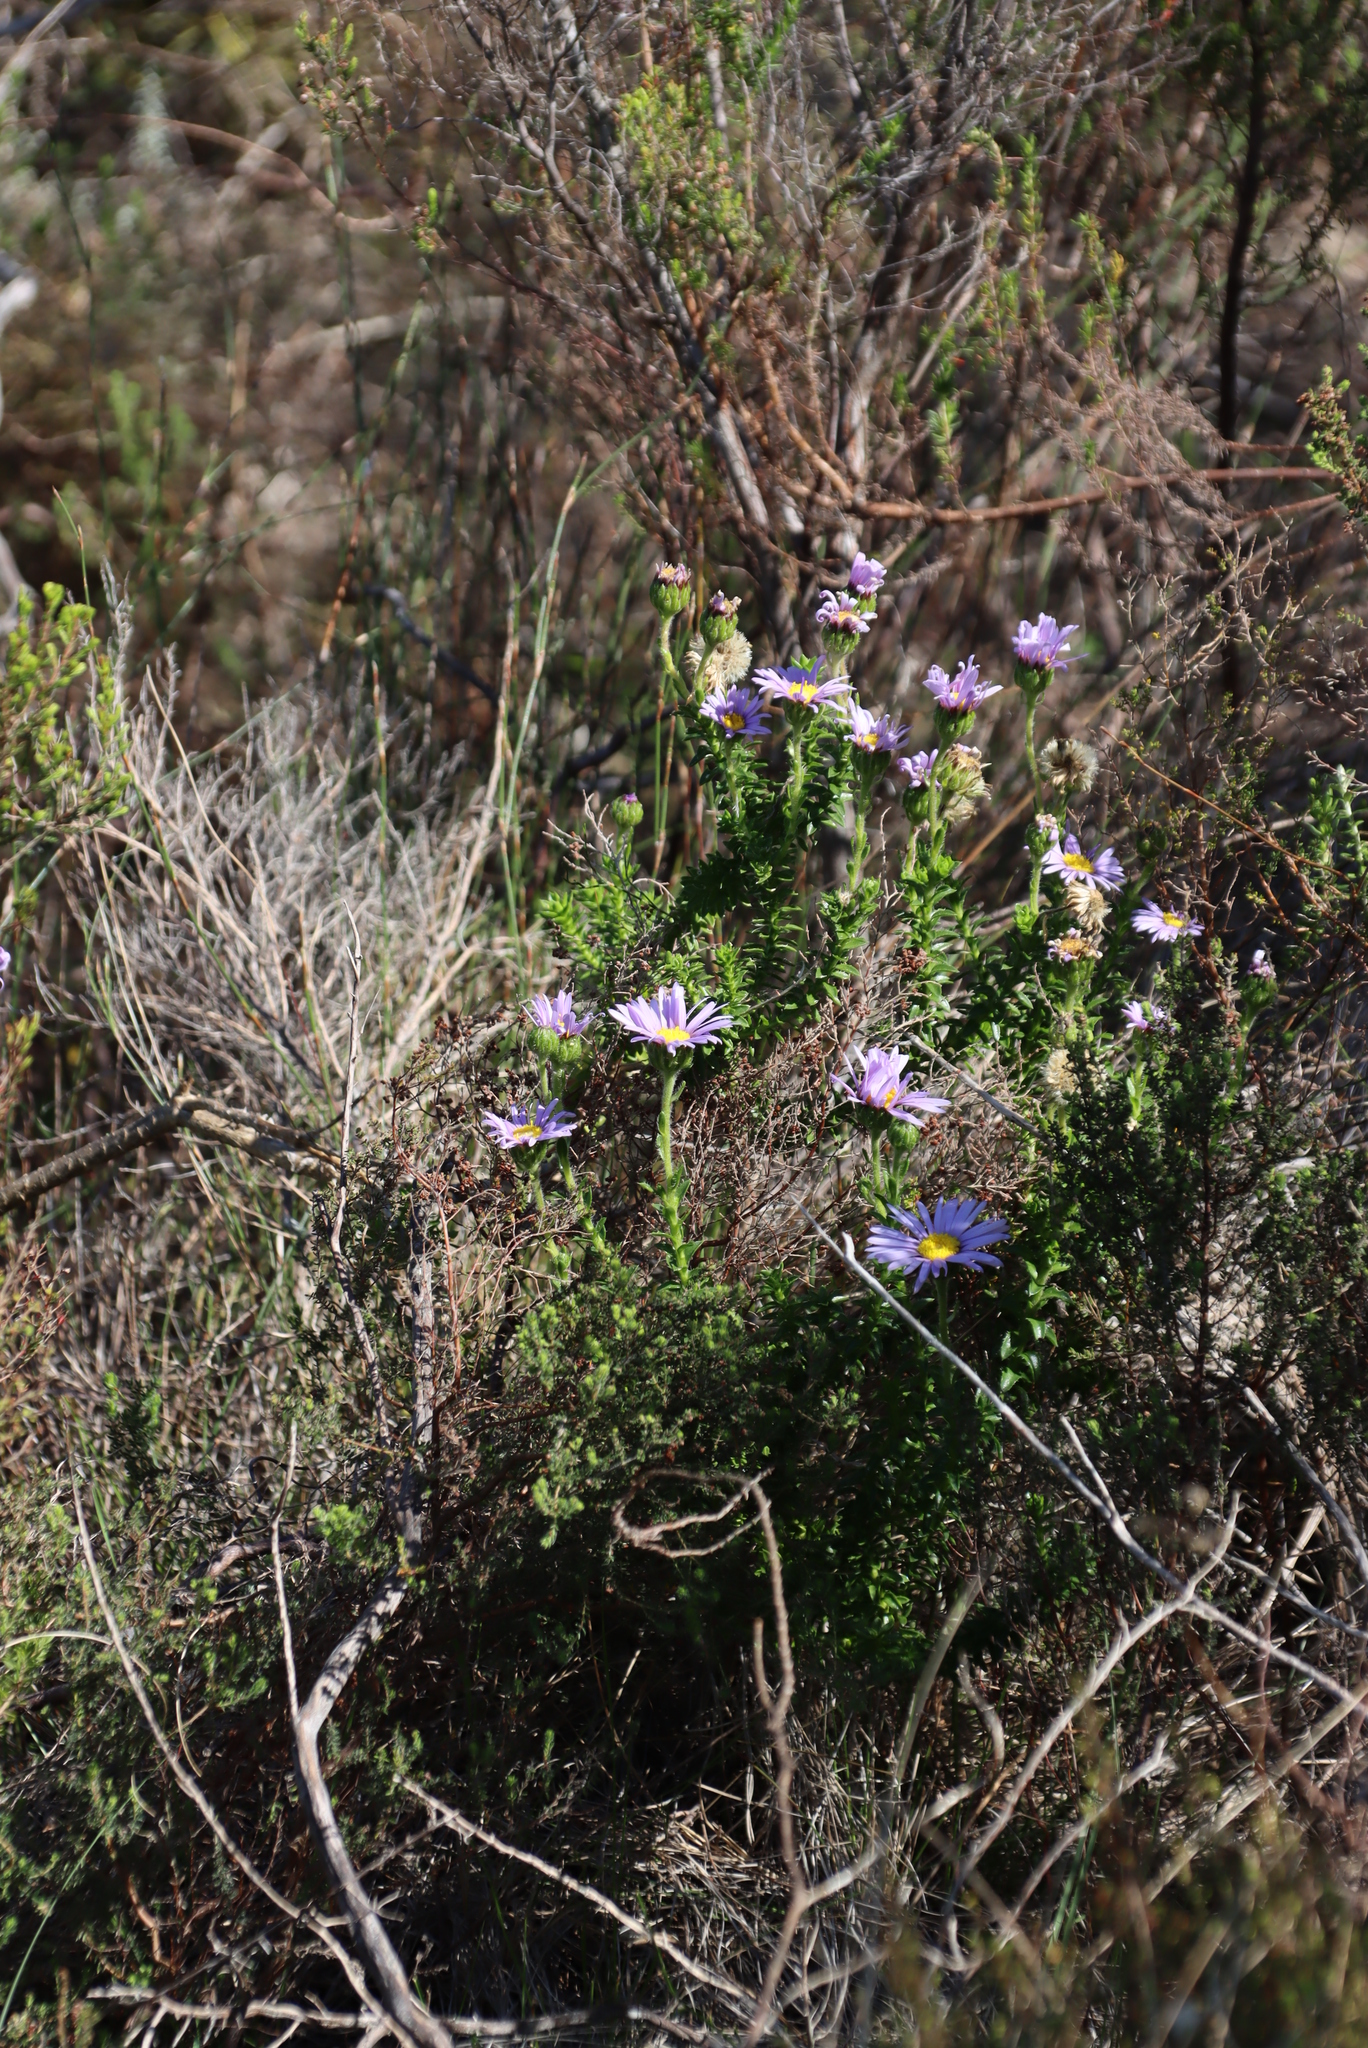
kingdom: Plantae
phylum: Tracheophyta
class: Magnoliopsida
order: Asterales
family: Asteraceae
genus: Felicia
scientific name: Felicia echinata
